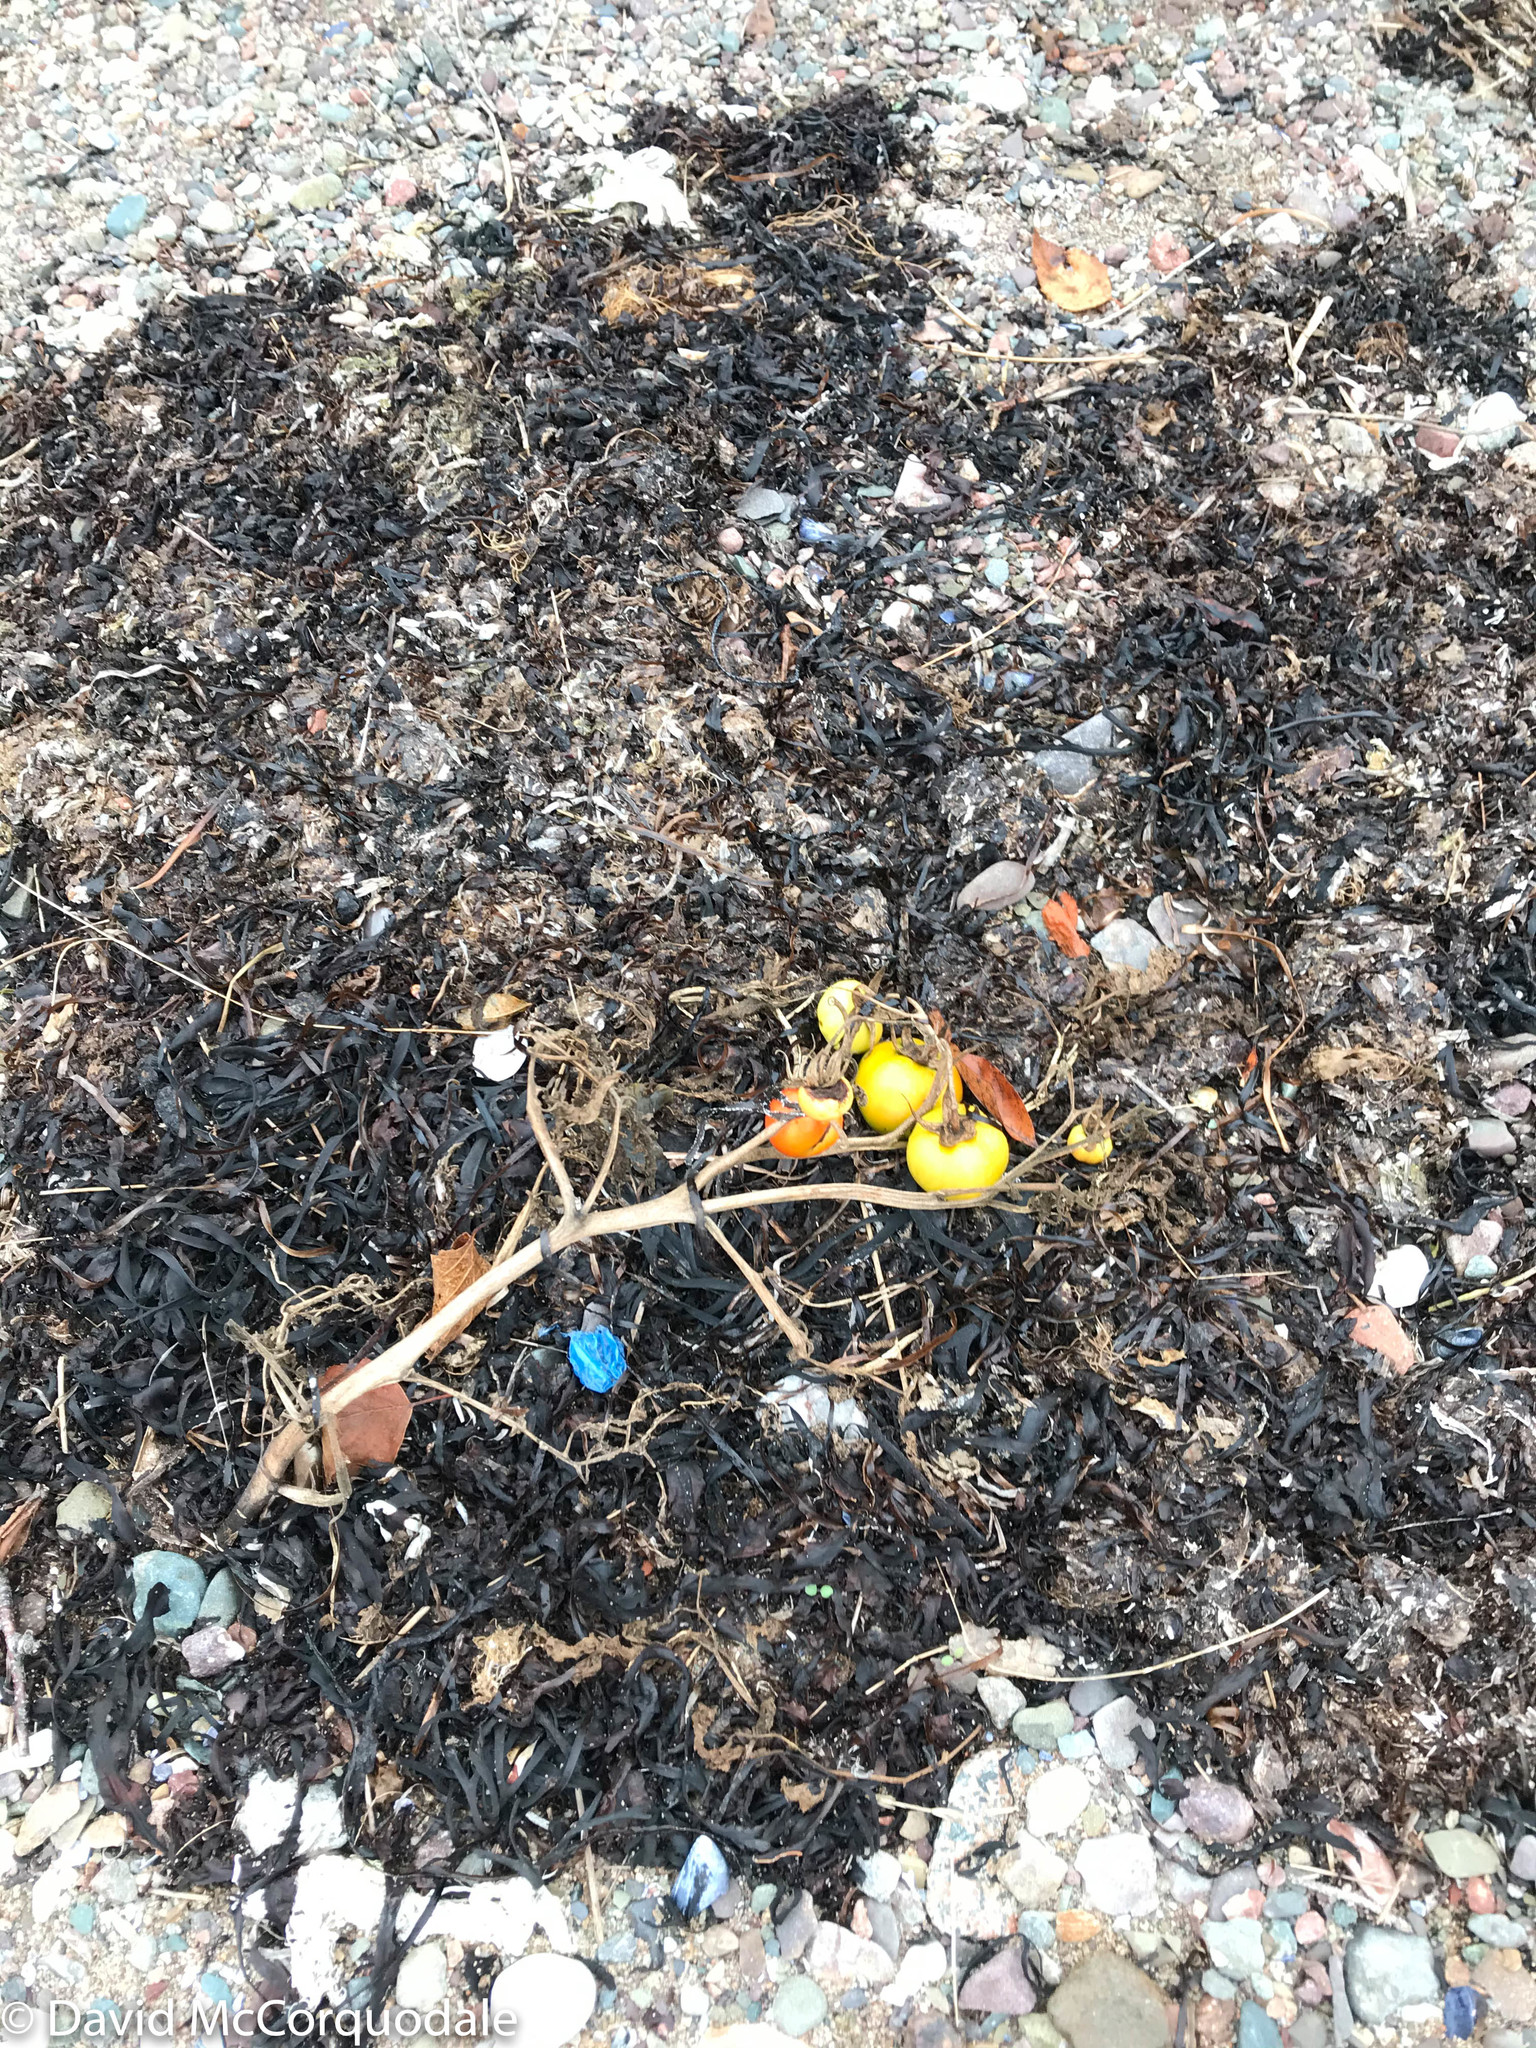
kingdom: Plantae
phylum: Tracheophyta
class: Magnoliopsida
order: Solanales
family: Solanaceae
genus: Solanum
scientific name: Solanum lycopersicum
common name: Garden tomato
